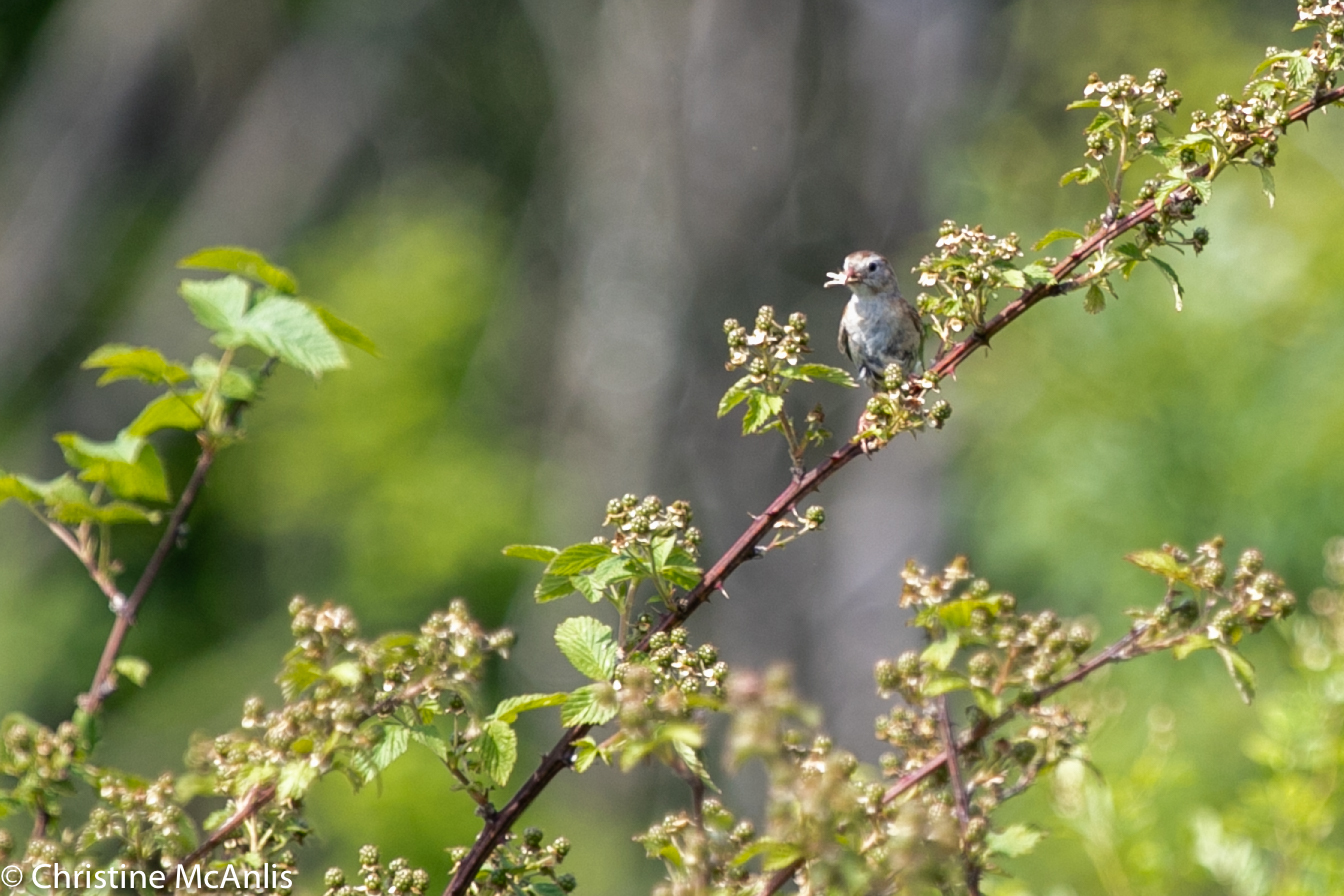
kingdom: Animalia
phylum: Chordata
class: Aves
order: Passeriformes
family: Passerellidae
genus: Spizella
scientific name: Spizella pusilla
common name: Field sparrow
